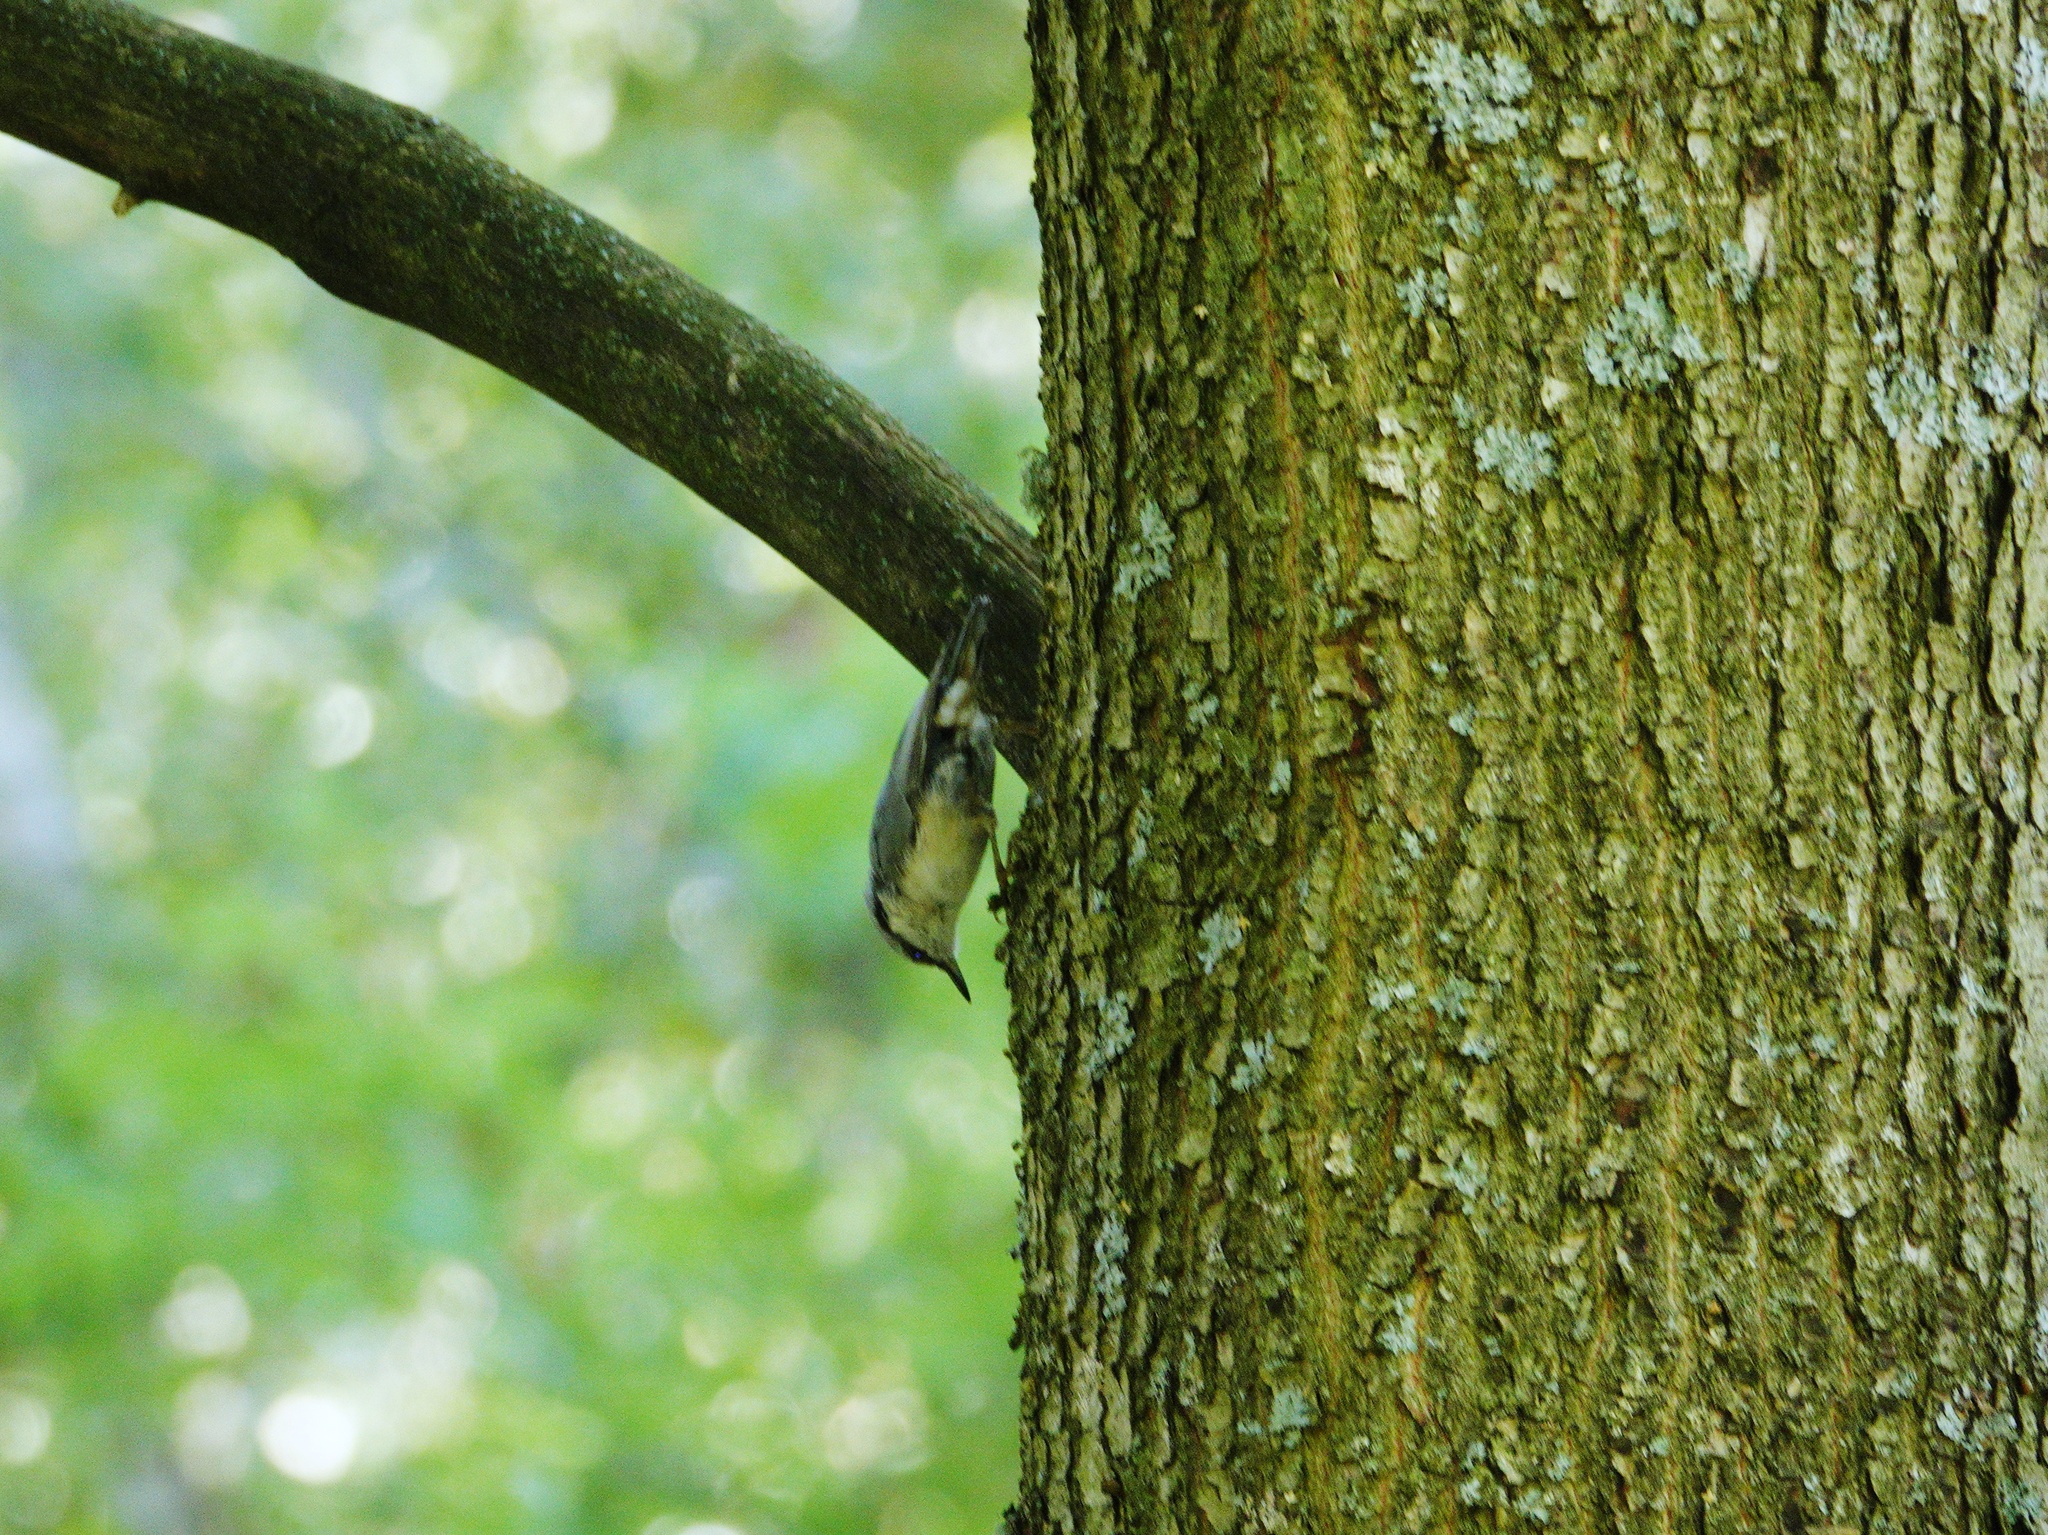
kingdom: Animalia
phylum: Chordata
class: Aves
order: Passeriformes
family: Sittidae
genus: Sitta
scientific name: Sitta europaea
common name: Eurasian nuthatch
